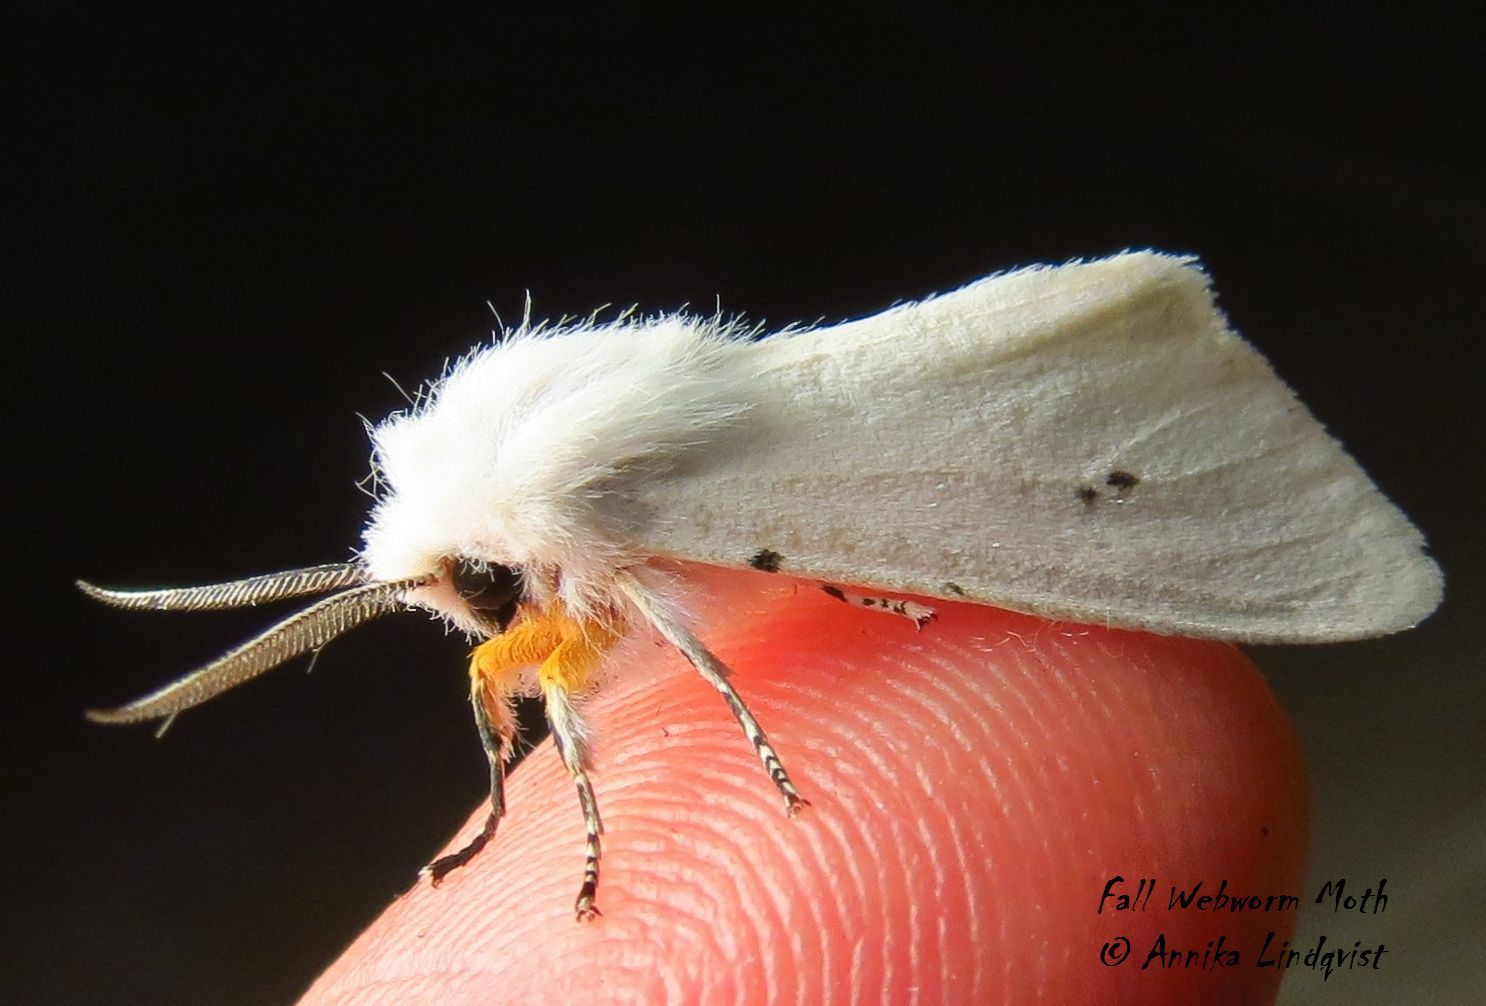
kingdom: Animalia
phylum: Arthropoda
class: Insecta
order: Lepidoptera
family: Erebidae
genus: Hyphantria
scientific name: Hyphantria cunea
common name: American white moth
